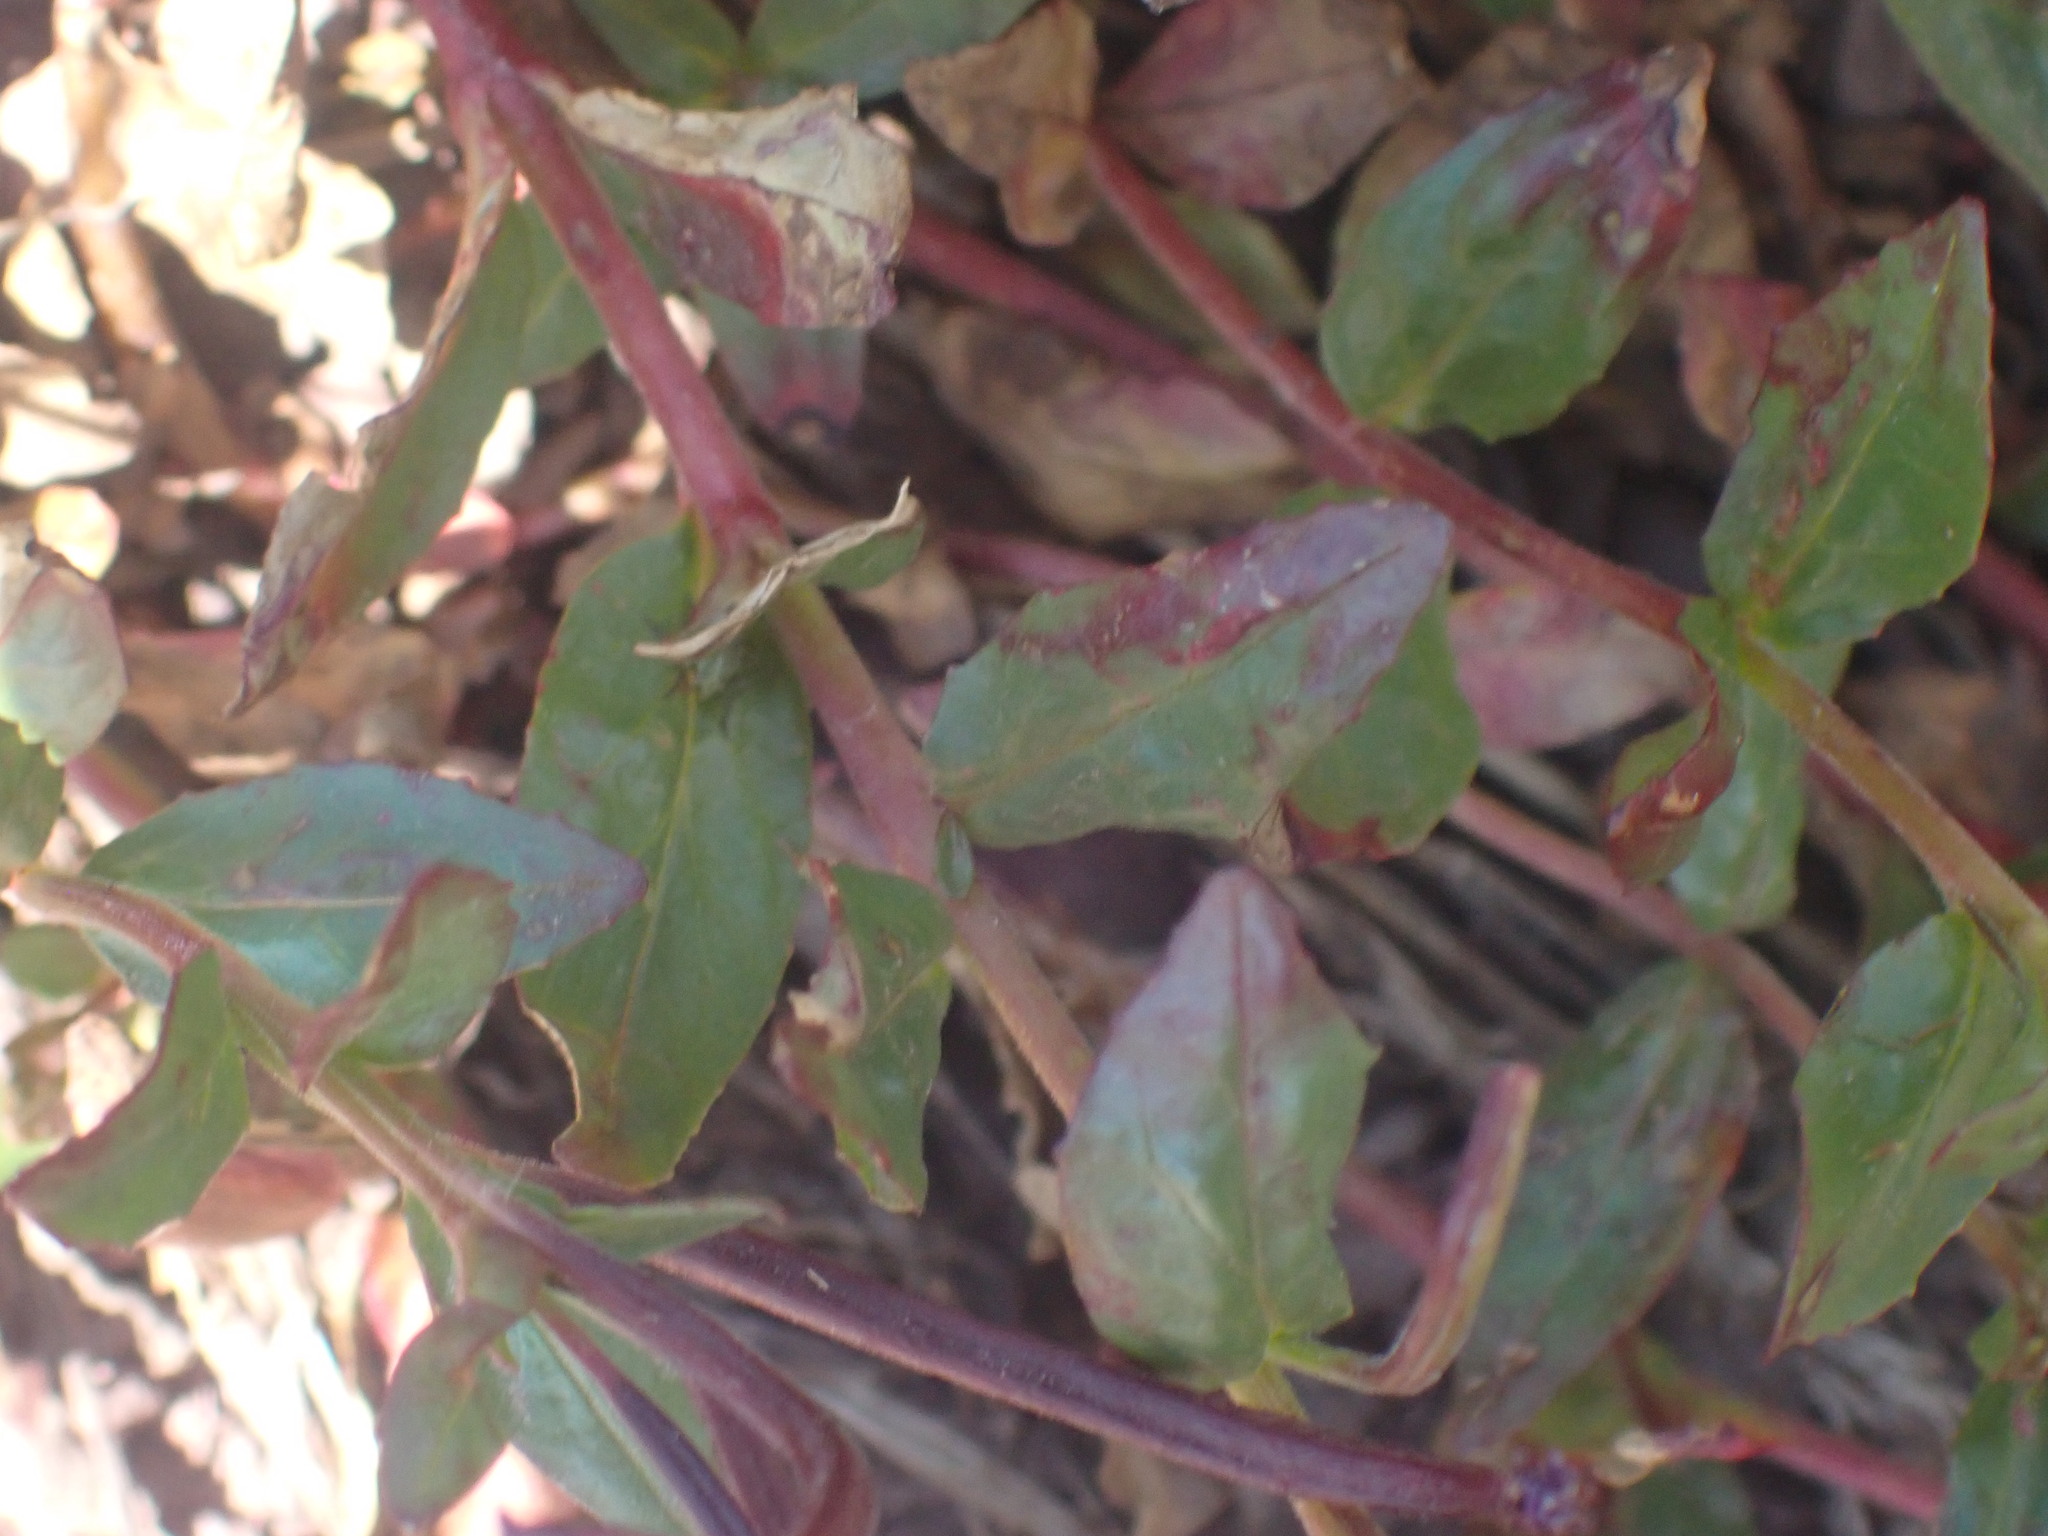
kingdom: Plantae
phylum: Tracheophyta
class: Magnoliopsida
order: Myrtales
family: Onagraceae
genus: Epilobium
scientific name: Epilobium anagallidifolium
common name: Alpine willowherb
